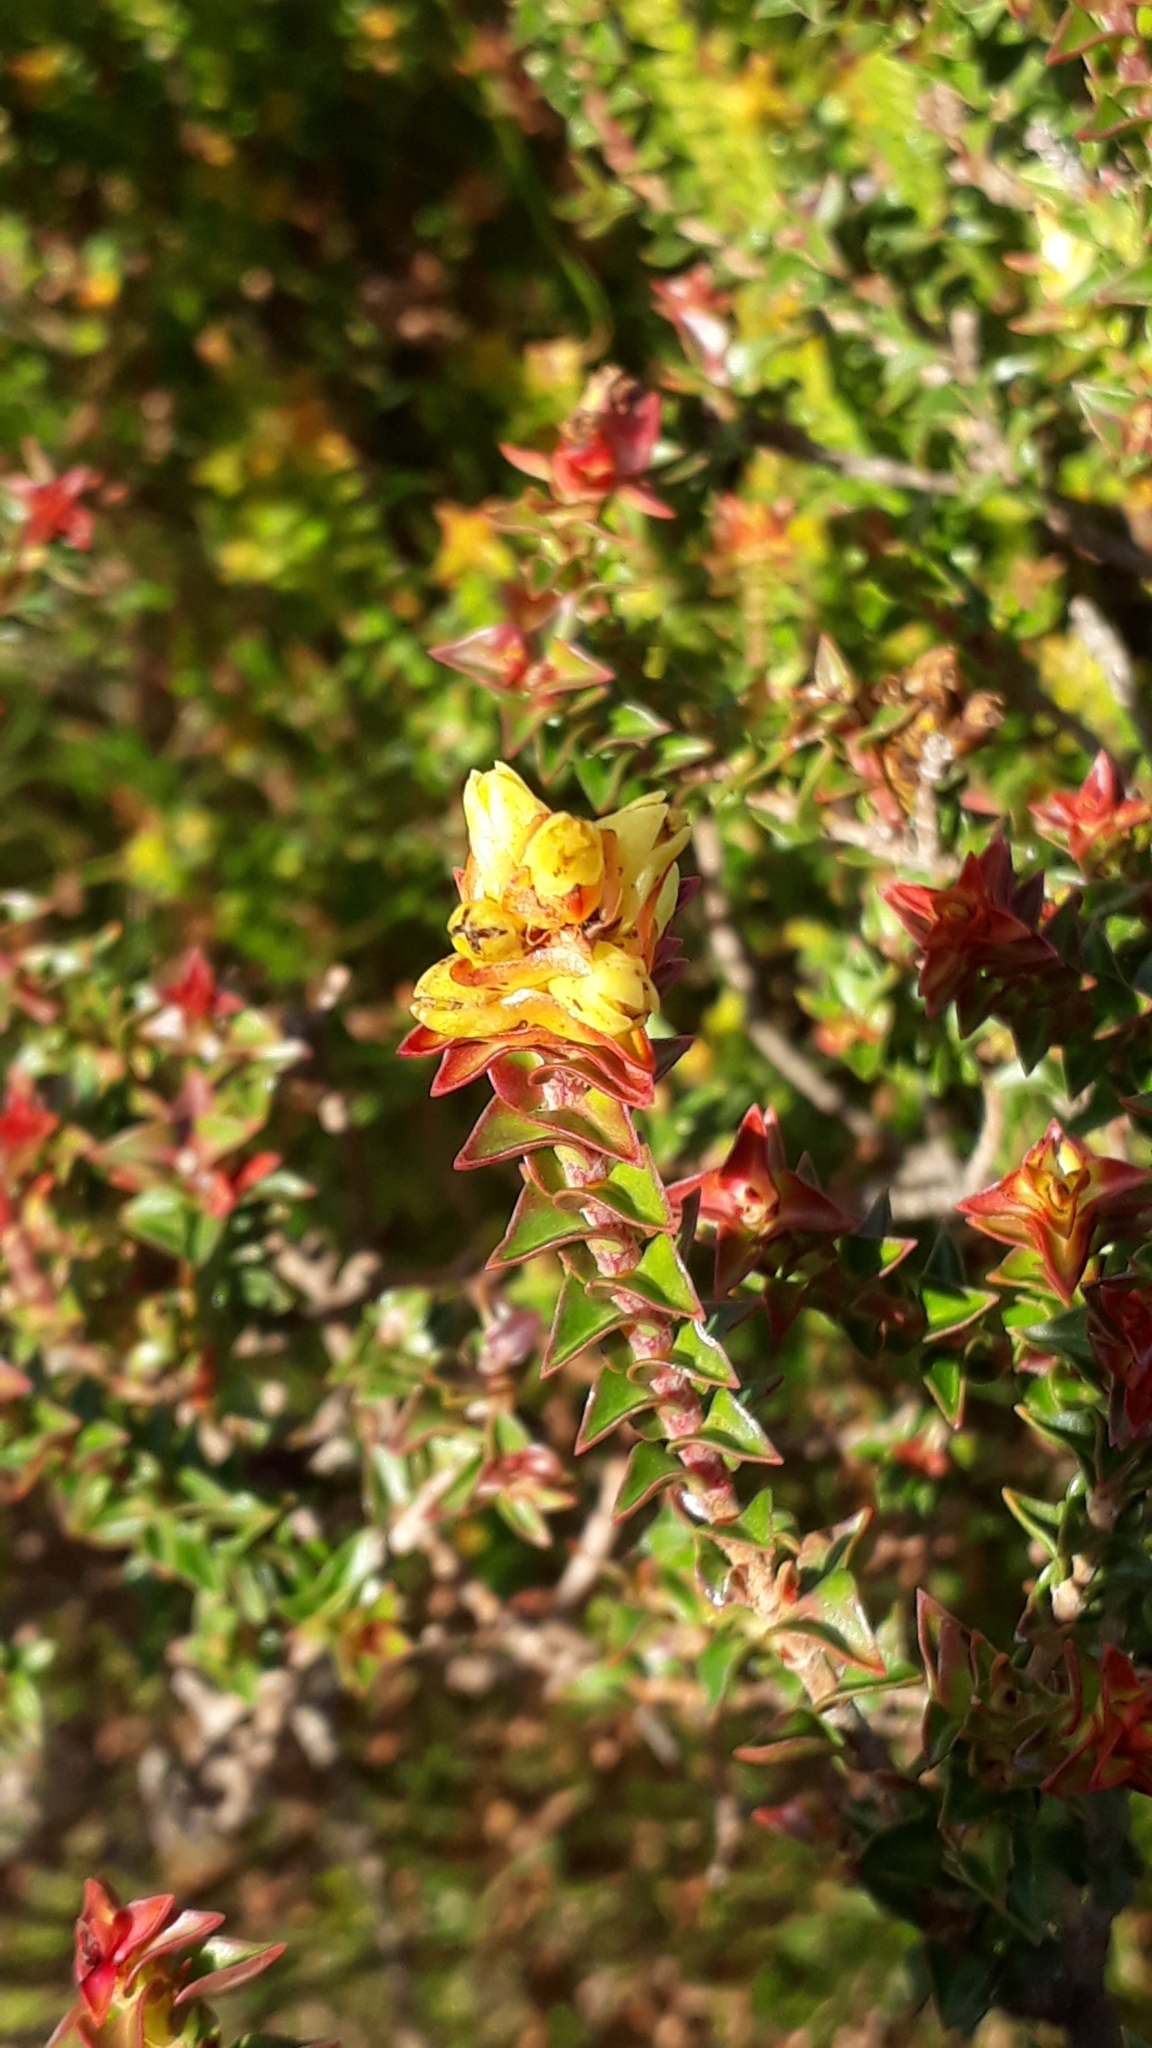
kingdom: Plantae
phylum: Tracheophyta
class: Magnoliopsida
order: Myrtales
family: Penaeaceae
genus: Penaea
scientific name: Penaea mucronata
